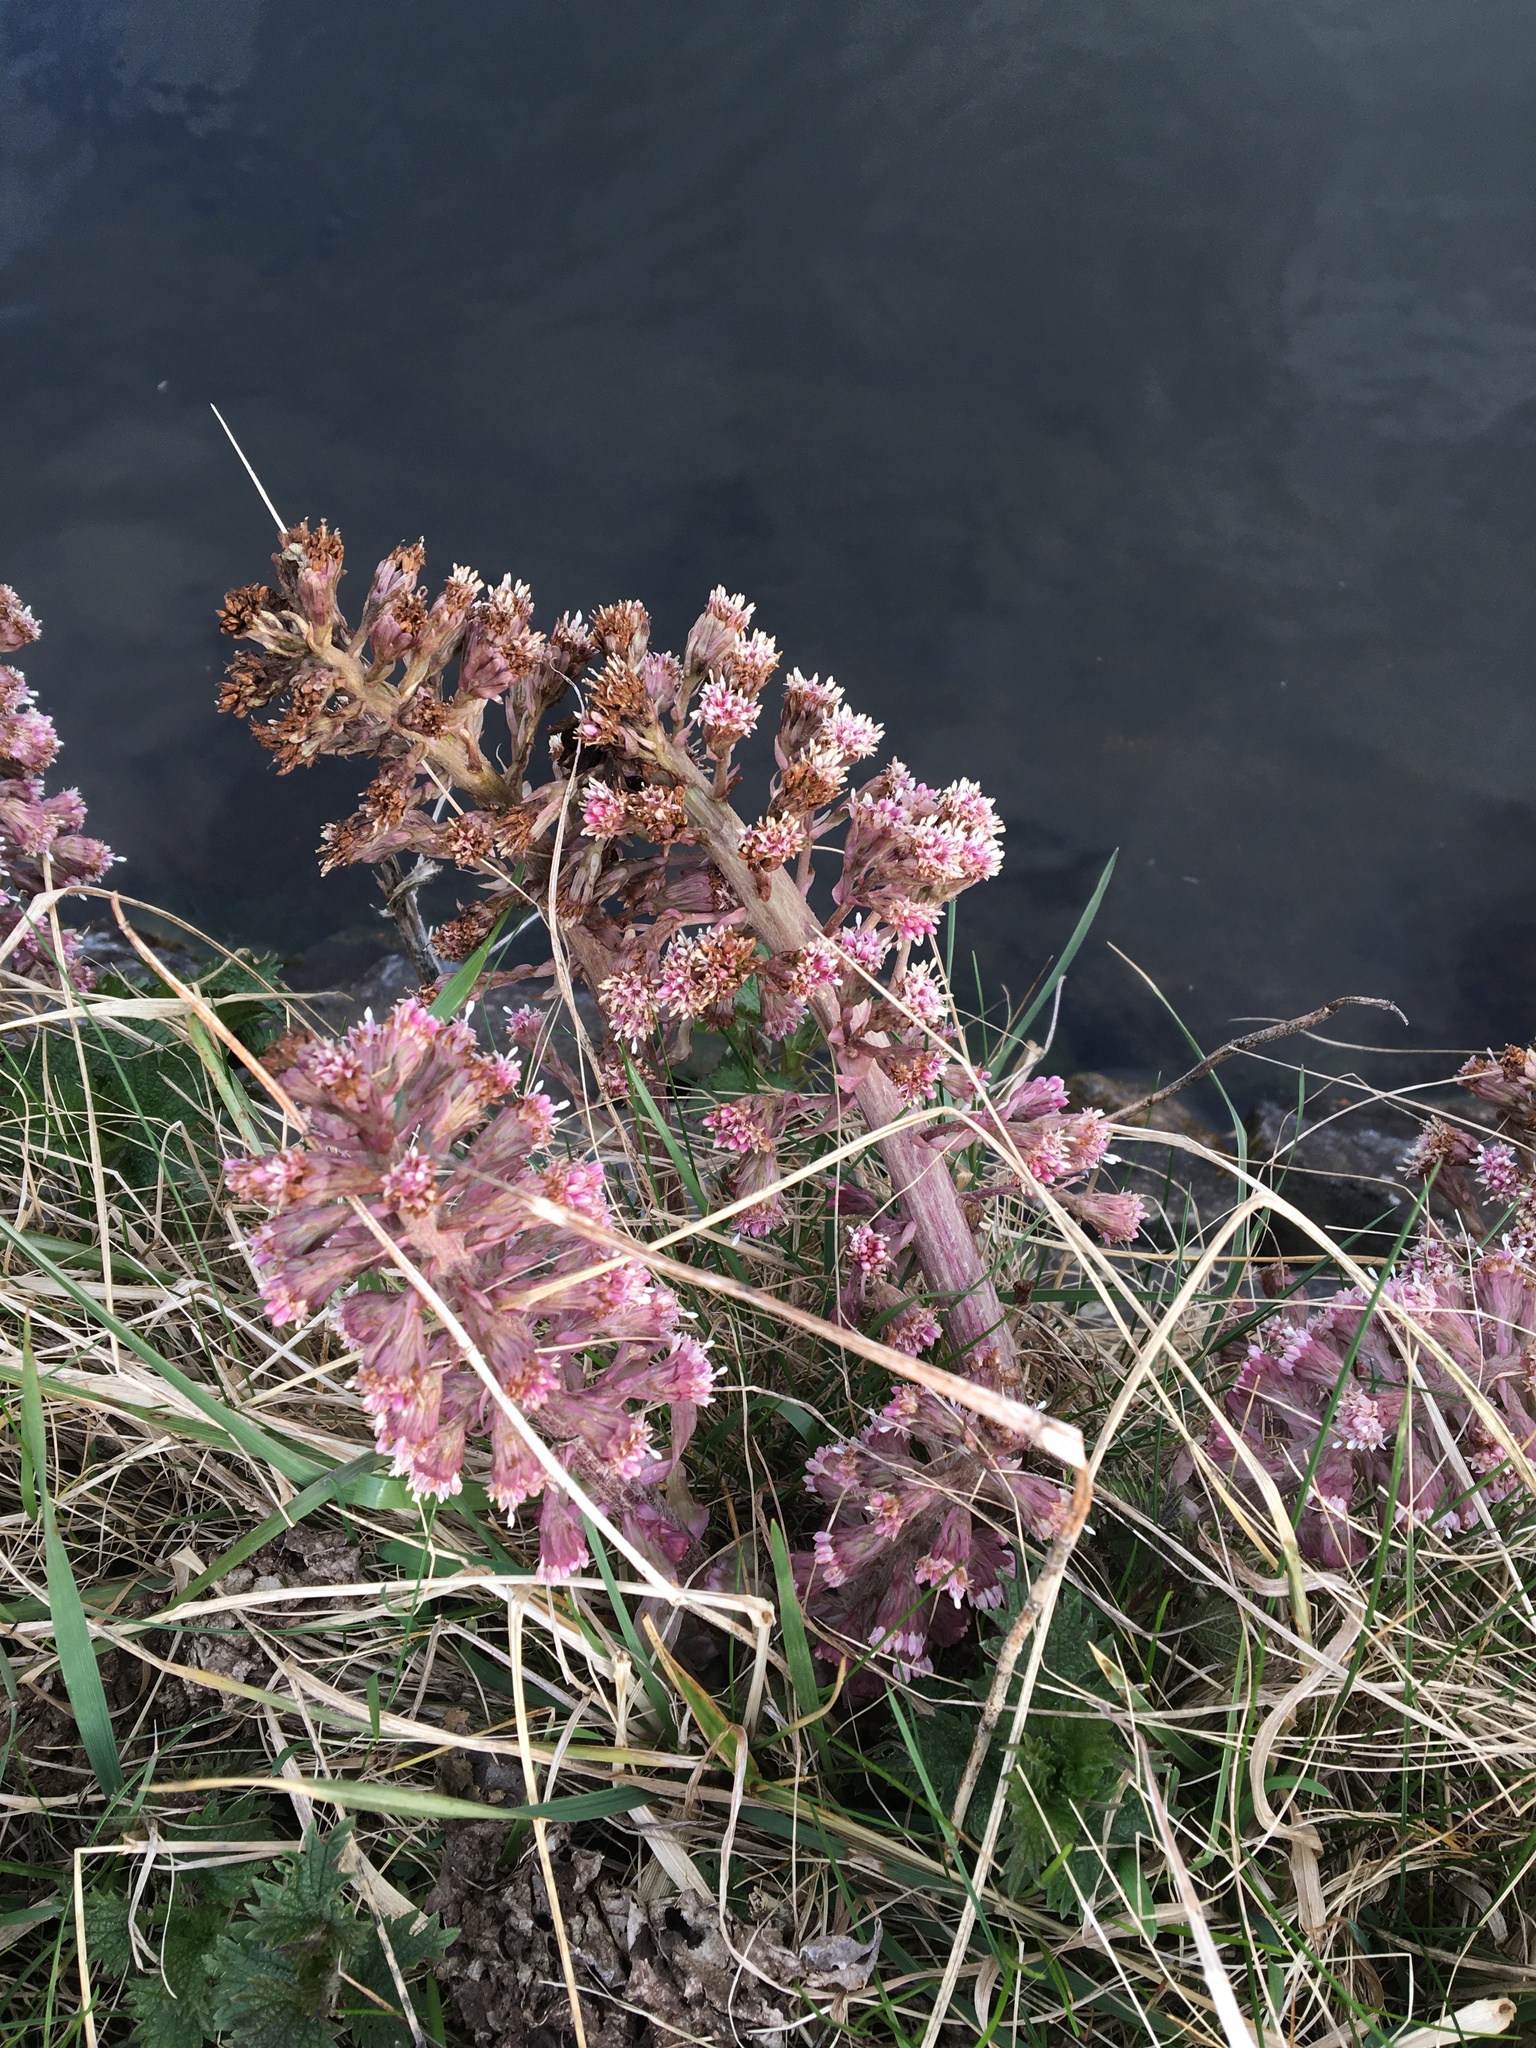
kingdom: Plantae
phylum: Tracheophyta
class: Magnoliopsida
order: Asterales
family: Asteraceae
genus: Petasites
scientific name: Petasites hybridus
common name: Butterbur
